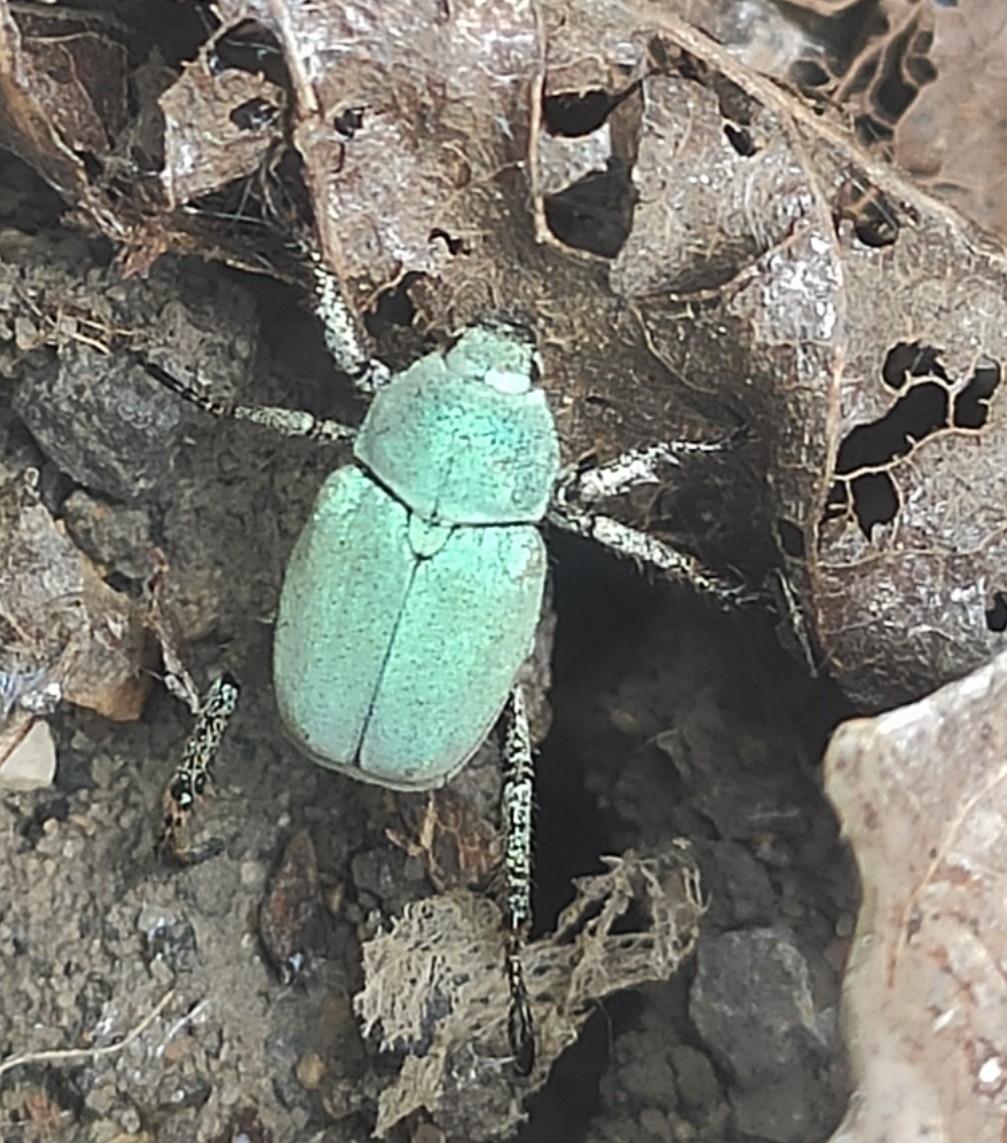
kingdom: Animalia
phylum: Arthropoda
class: Insecta
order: Coleoptera
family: Scarabaeidae
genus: Hoplia
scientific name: Hoplia parvula
